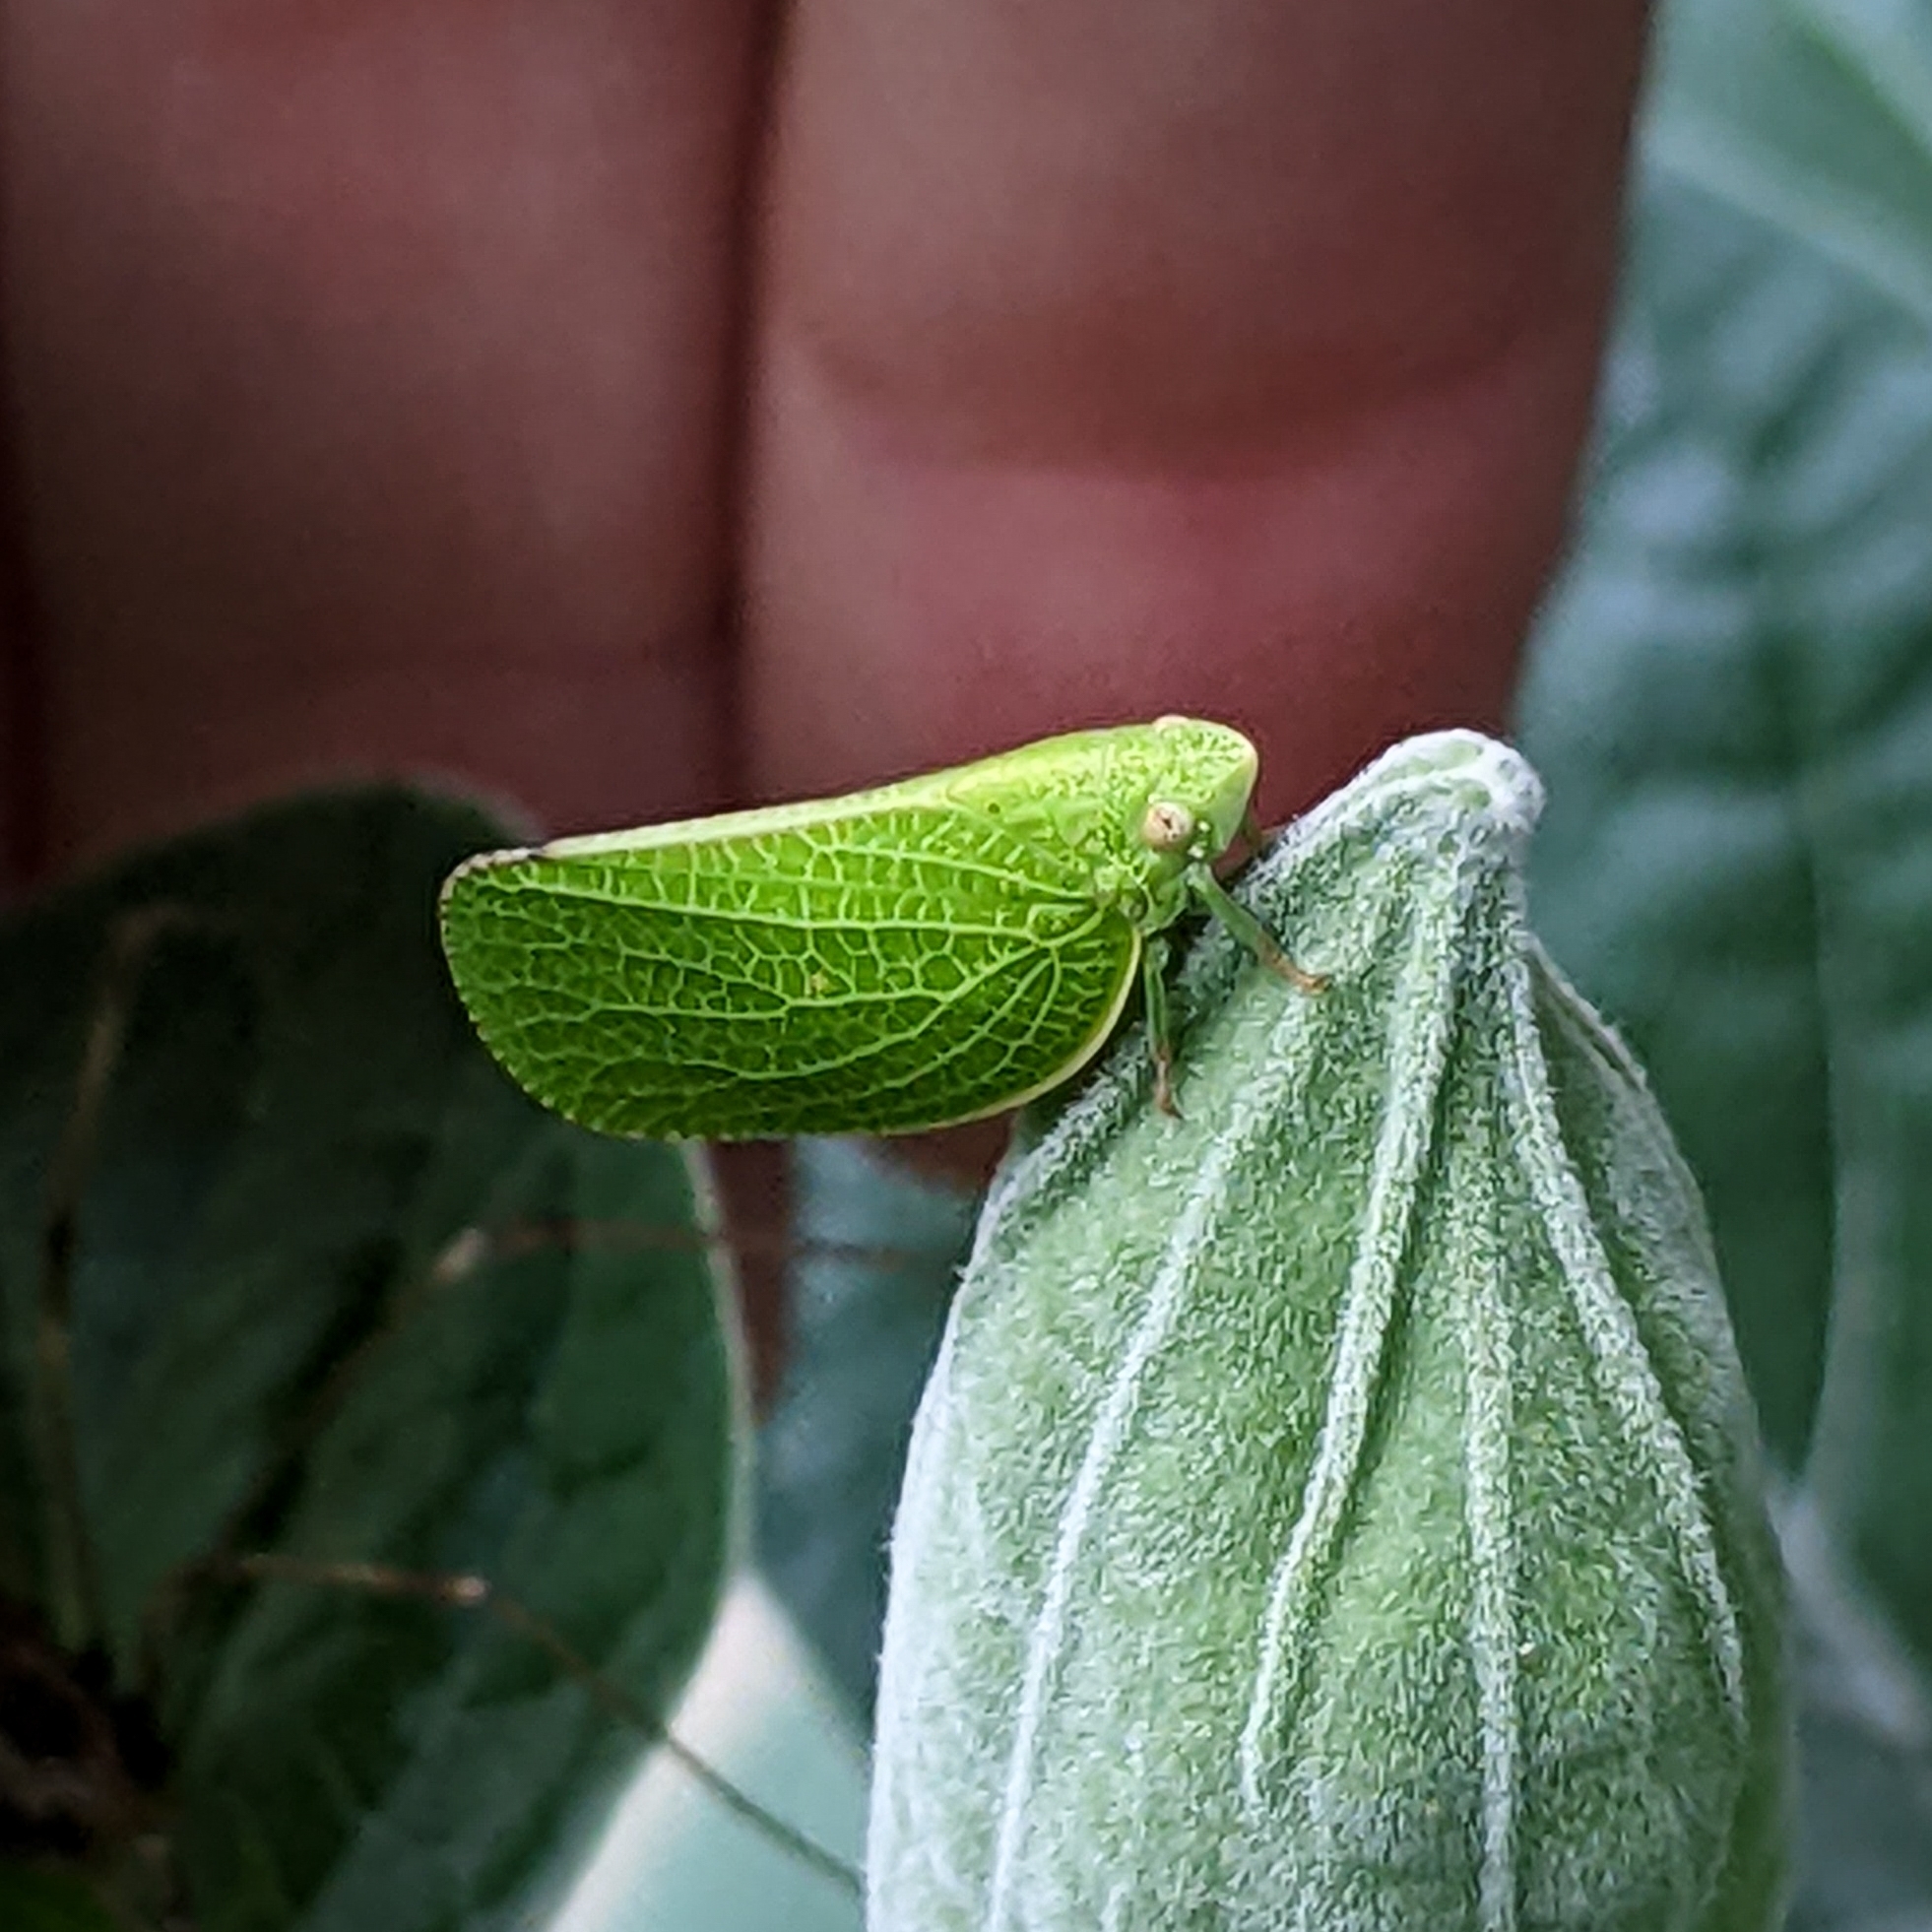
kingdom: Animalia
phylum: Arthropoda
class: Insecta
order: Hemiptera
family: Acanaloniidae
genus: Acanalonia
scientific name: Acanalonia conica
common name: Green cone-headed planthopper
